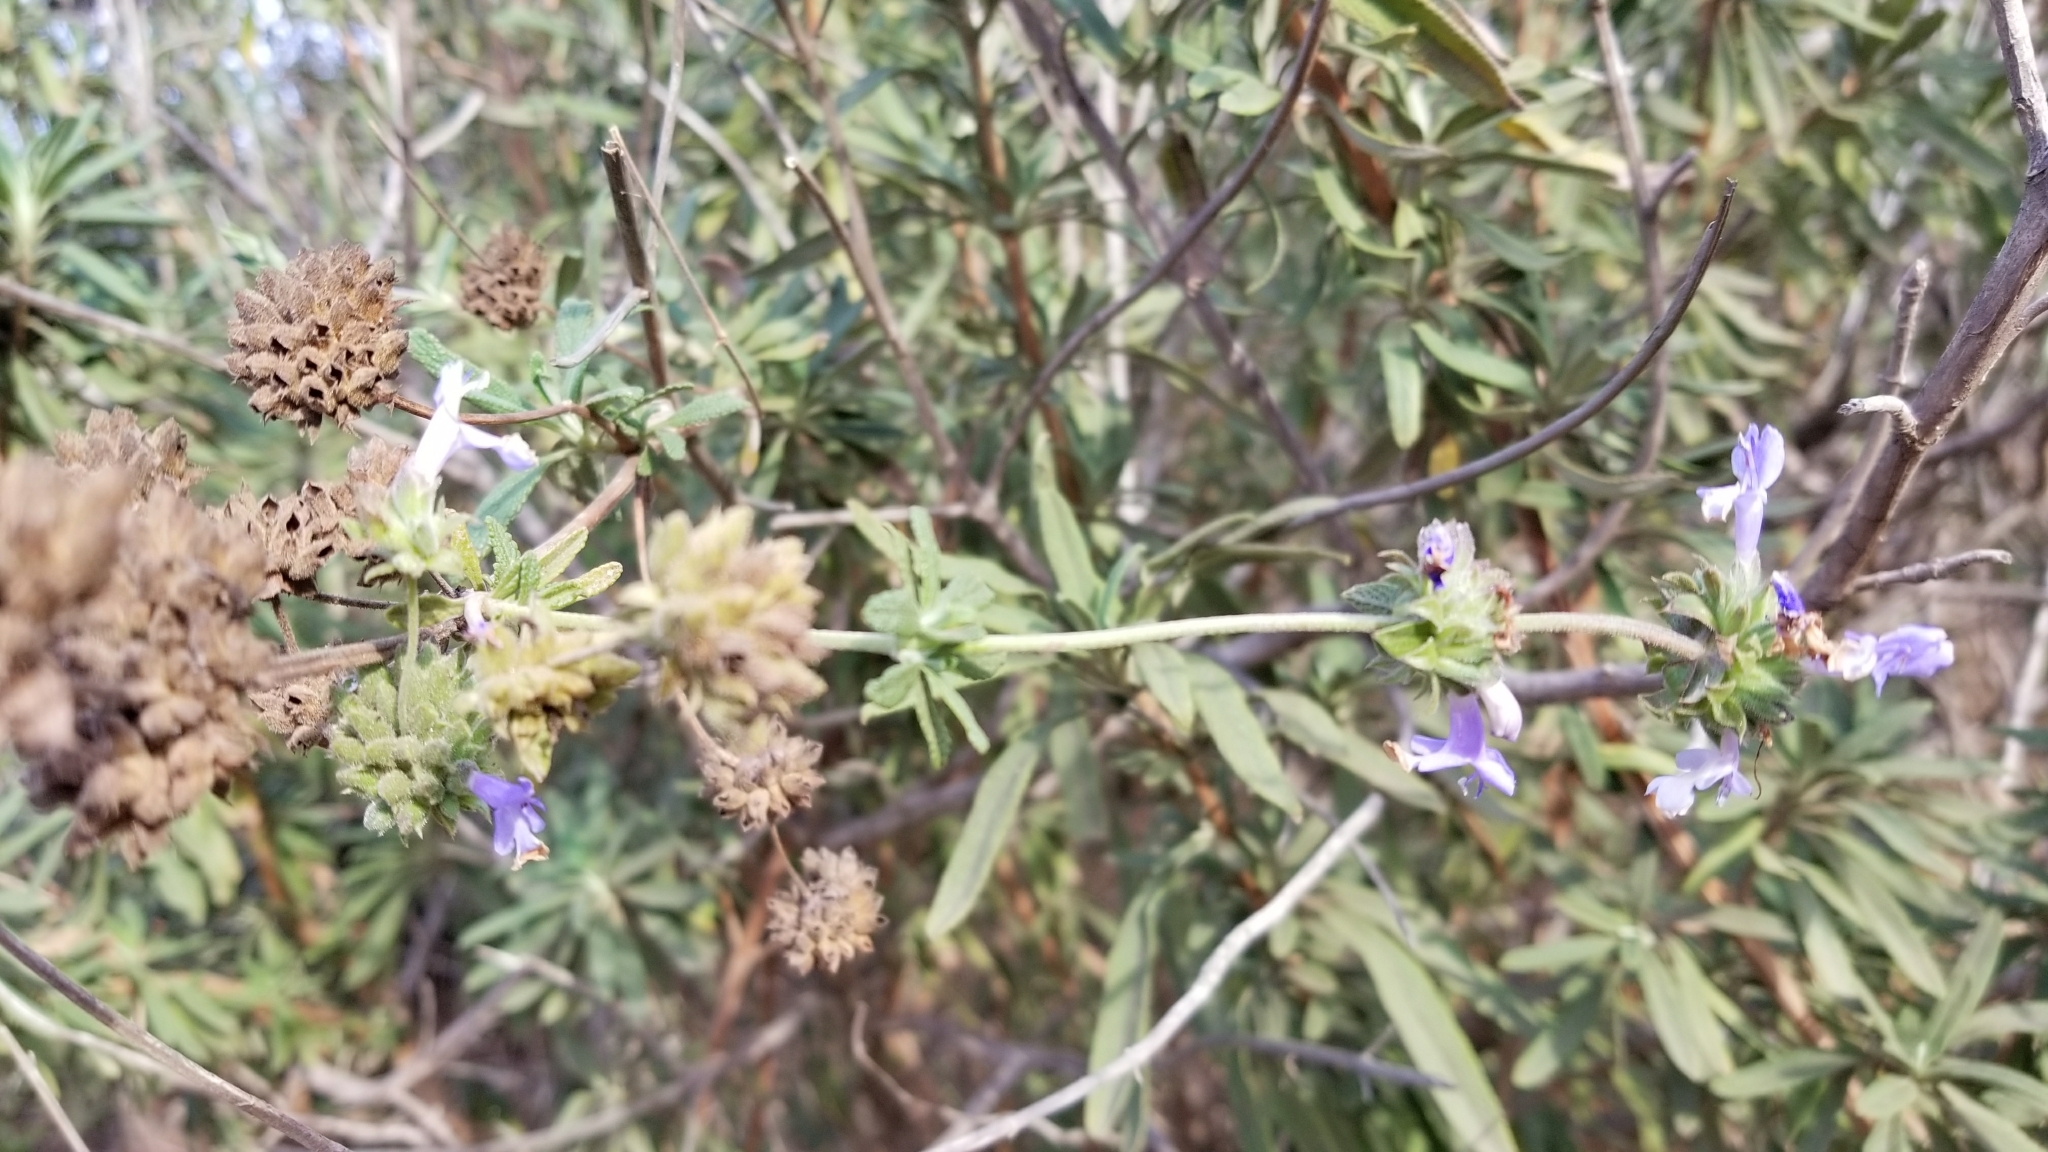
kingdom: Plantae
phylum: Tracheophyta
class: Magnoliopsida
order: Lamiales
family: Lamiaceae
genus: Salvia
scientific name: Salvia mellifera
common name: Black sage
